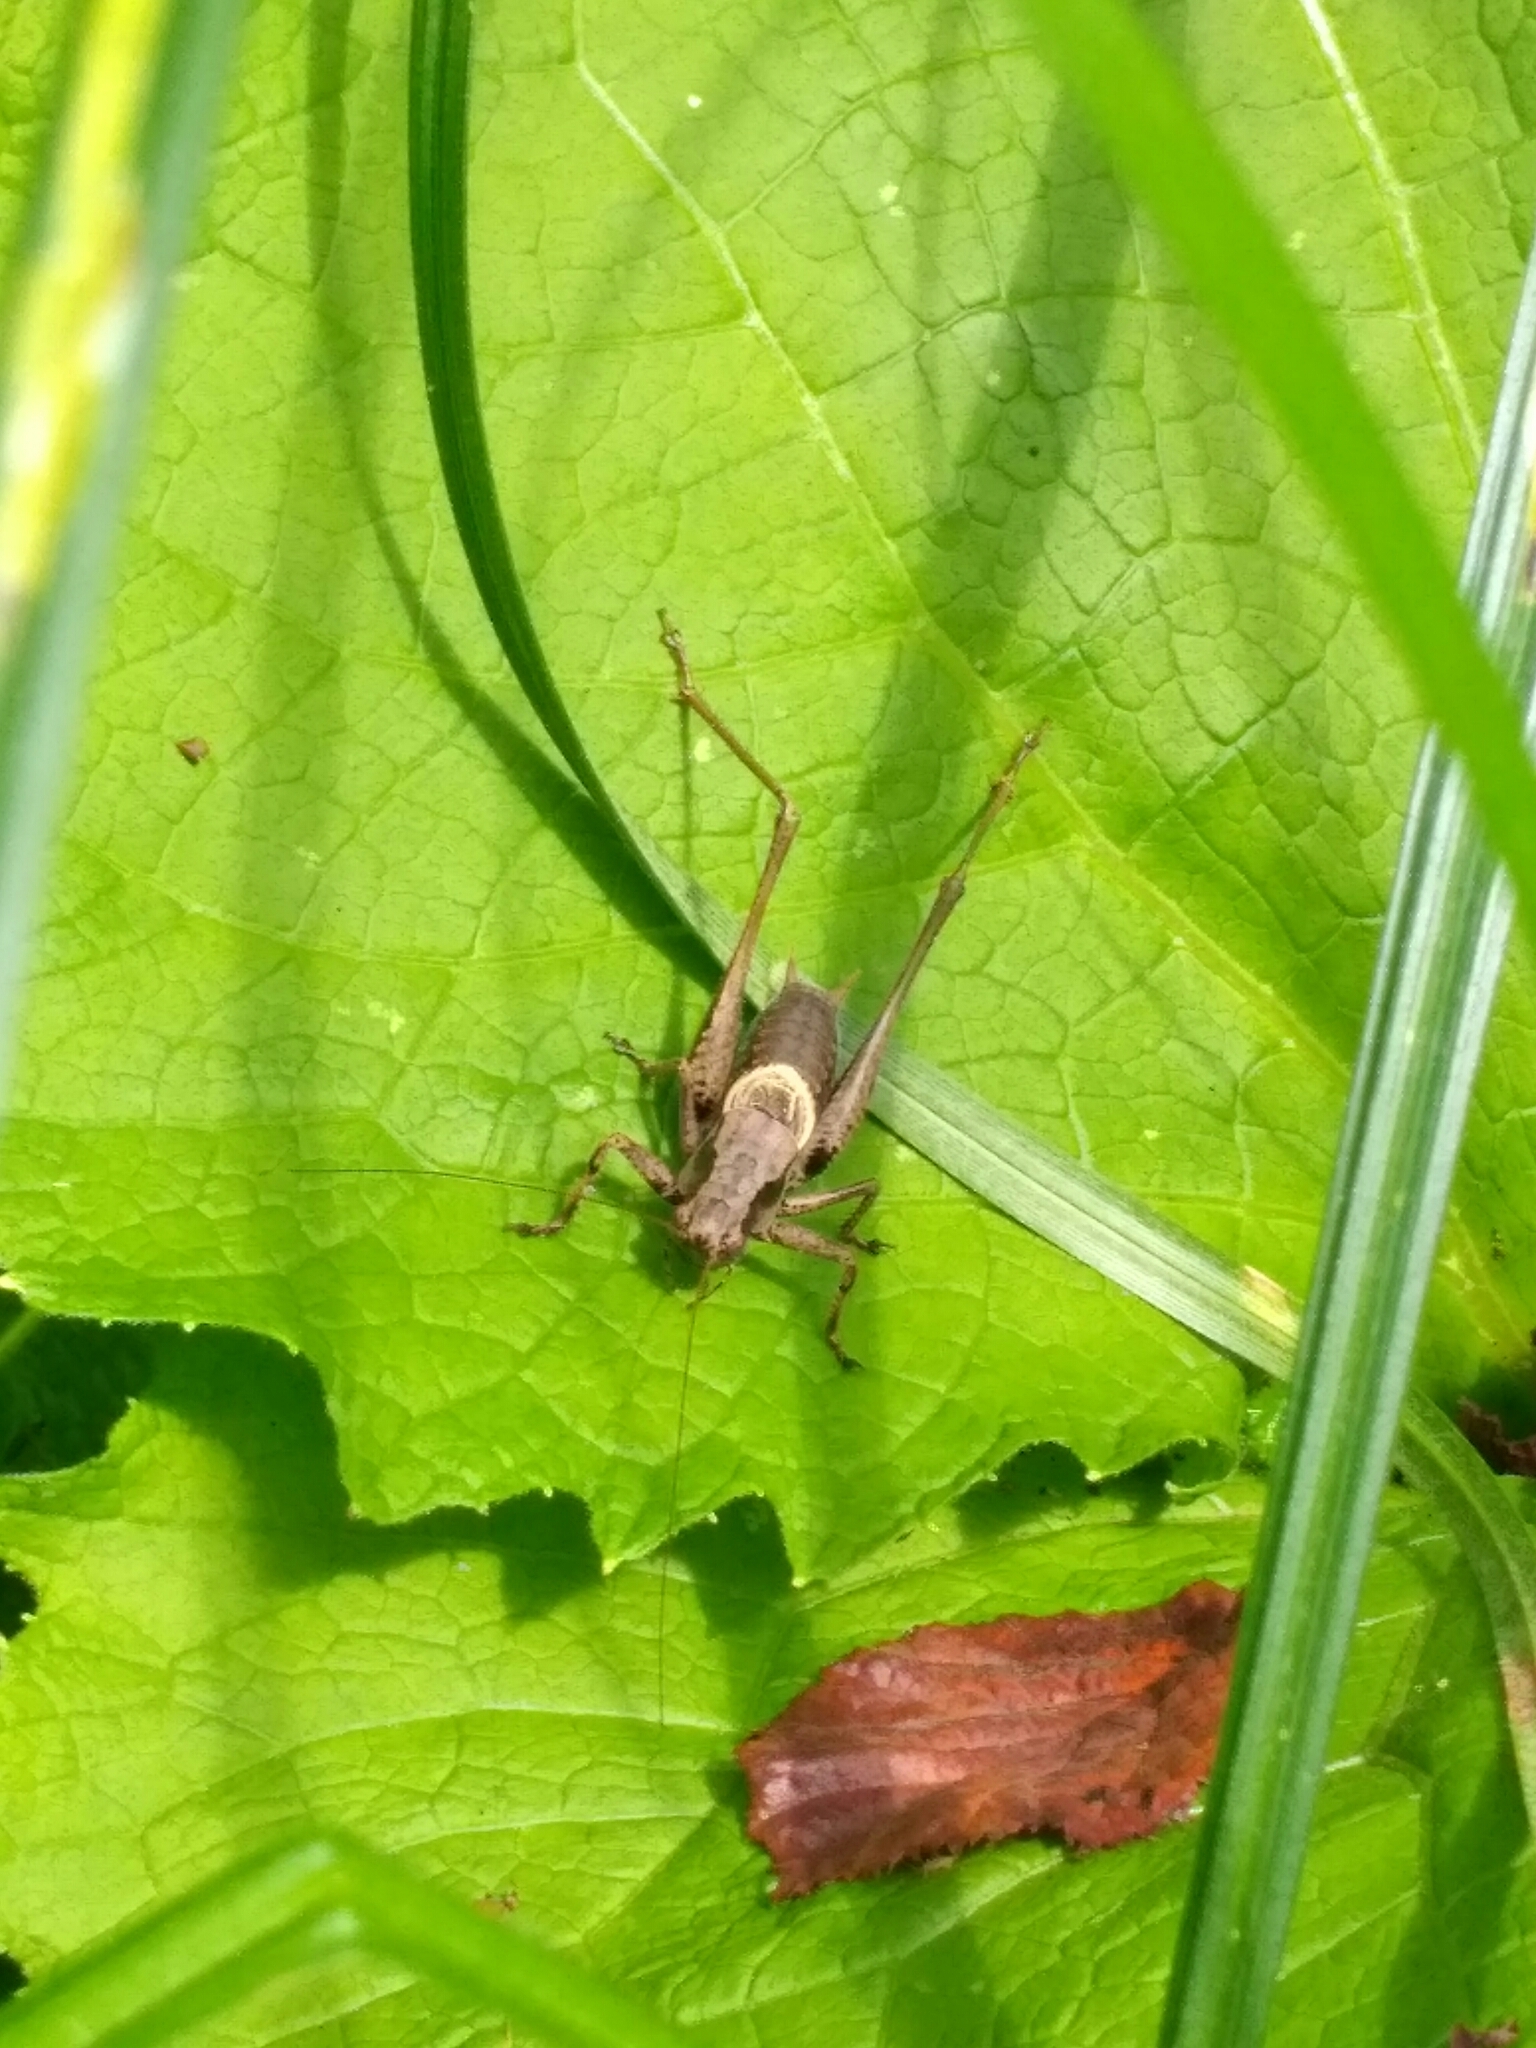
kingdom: Animalia
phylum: Arthropoda
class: Insecta
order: Orthoptera
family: Tettigoniidae
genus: Pholidoptera
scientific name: Pholidoptera griseoaptera
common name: Dark bush-cricket
